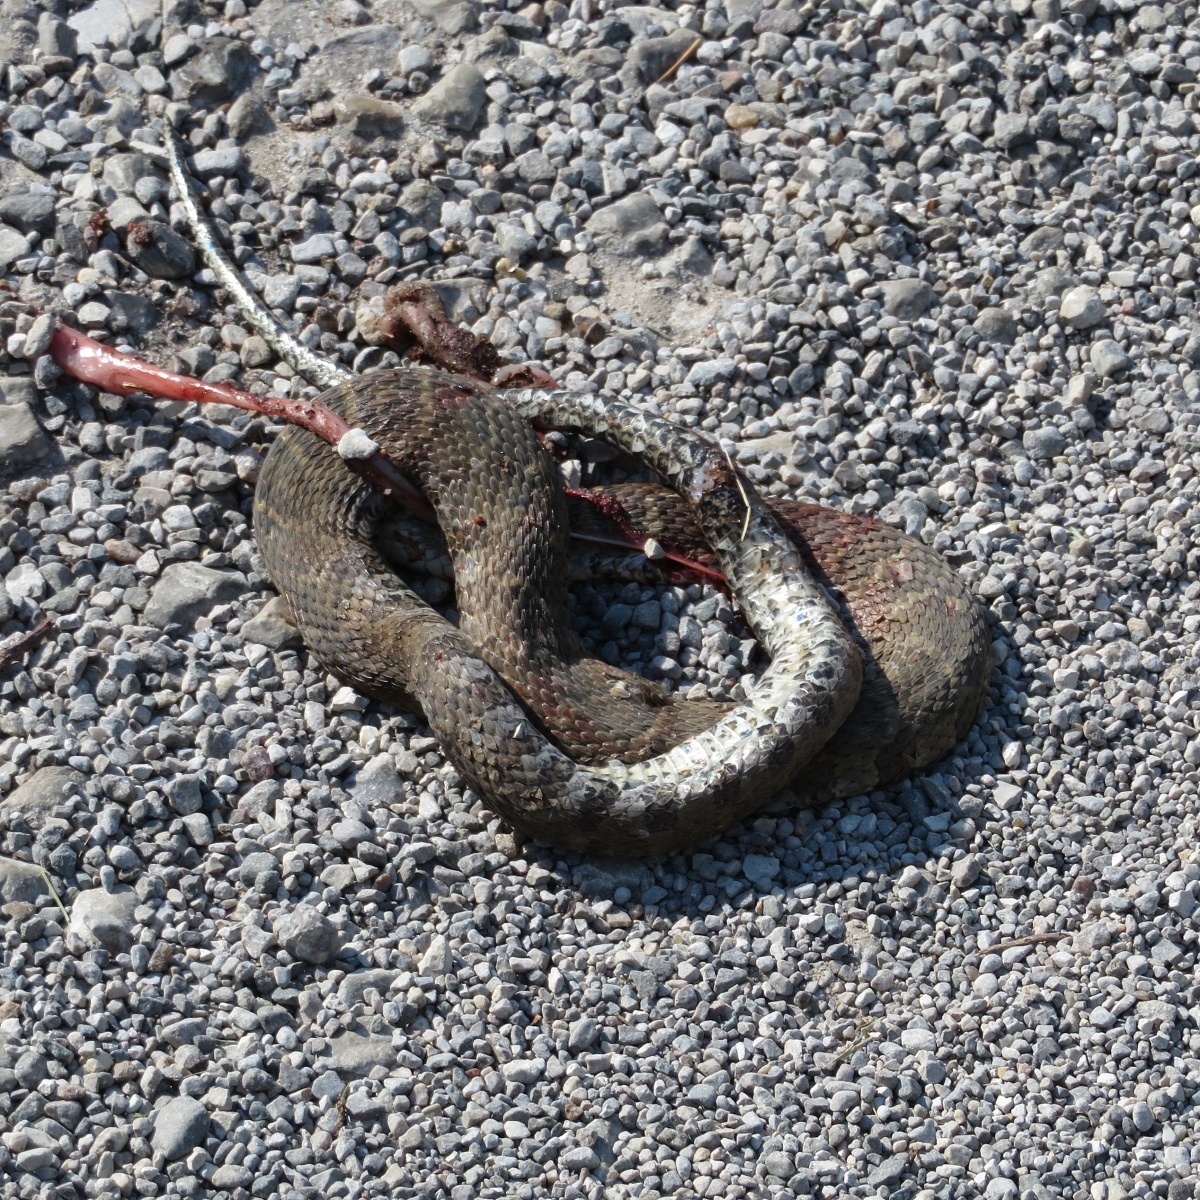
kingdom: Animalia
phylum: Chordata
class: Squamata
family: Colubridae
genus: Nerodia
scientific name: Nerodia sipedon
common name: Northern water snake
